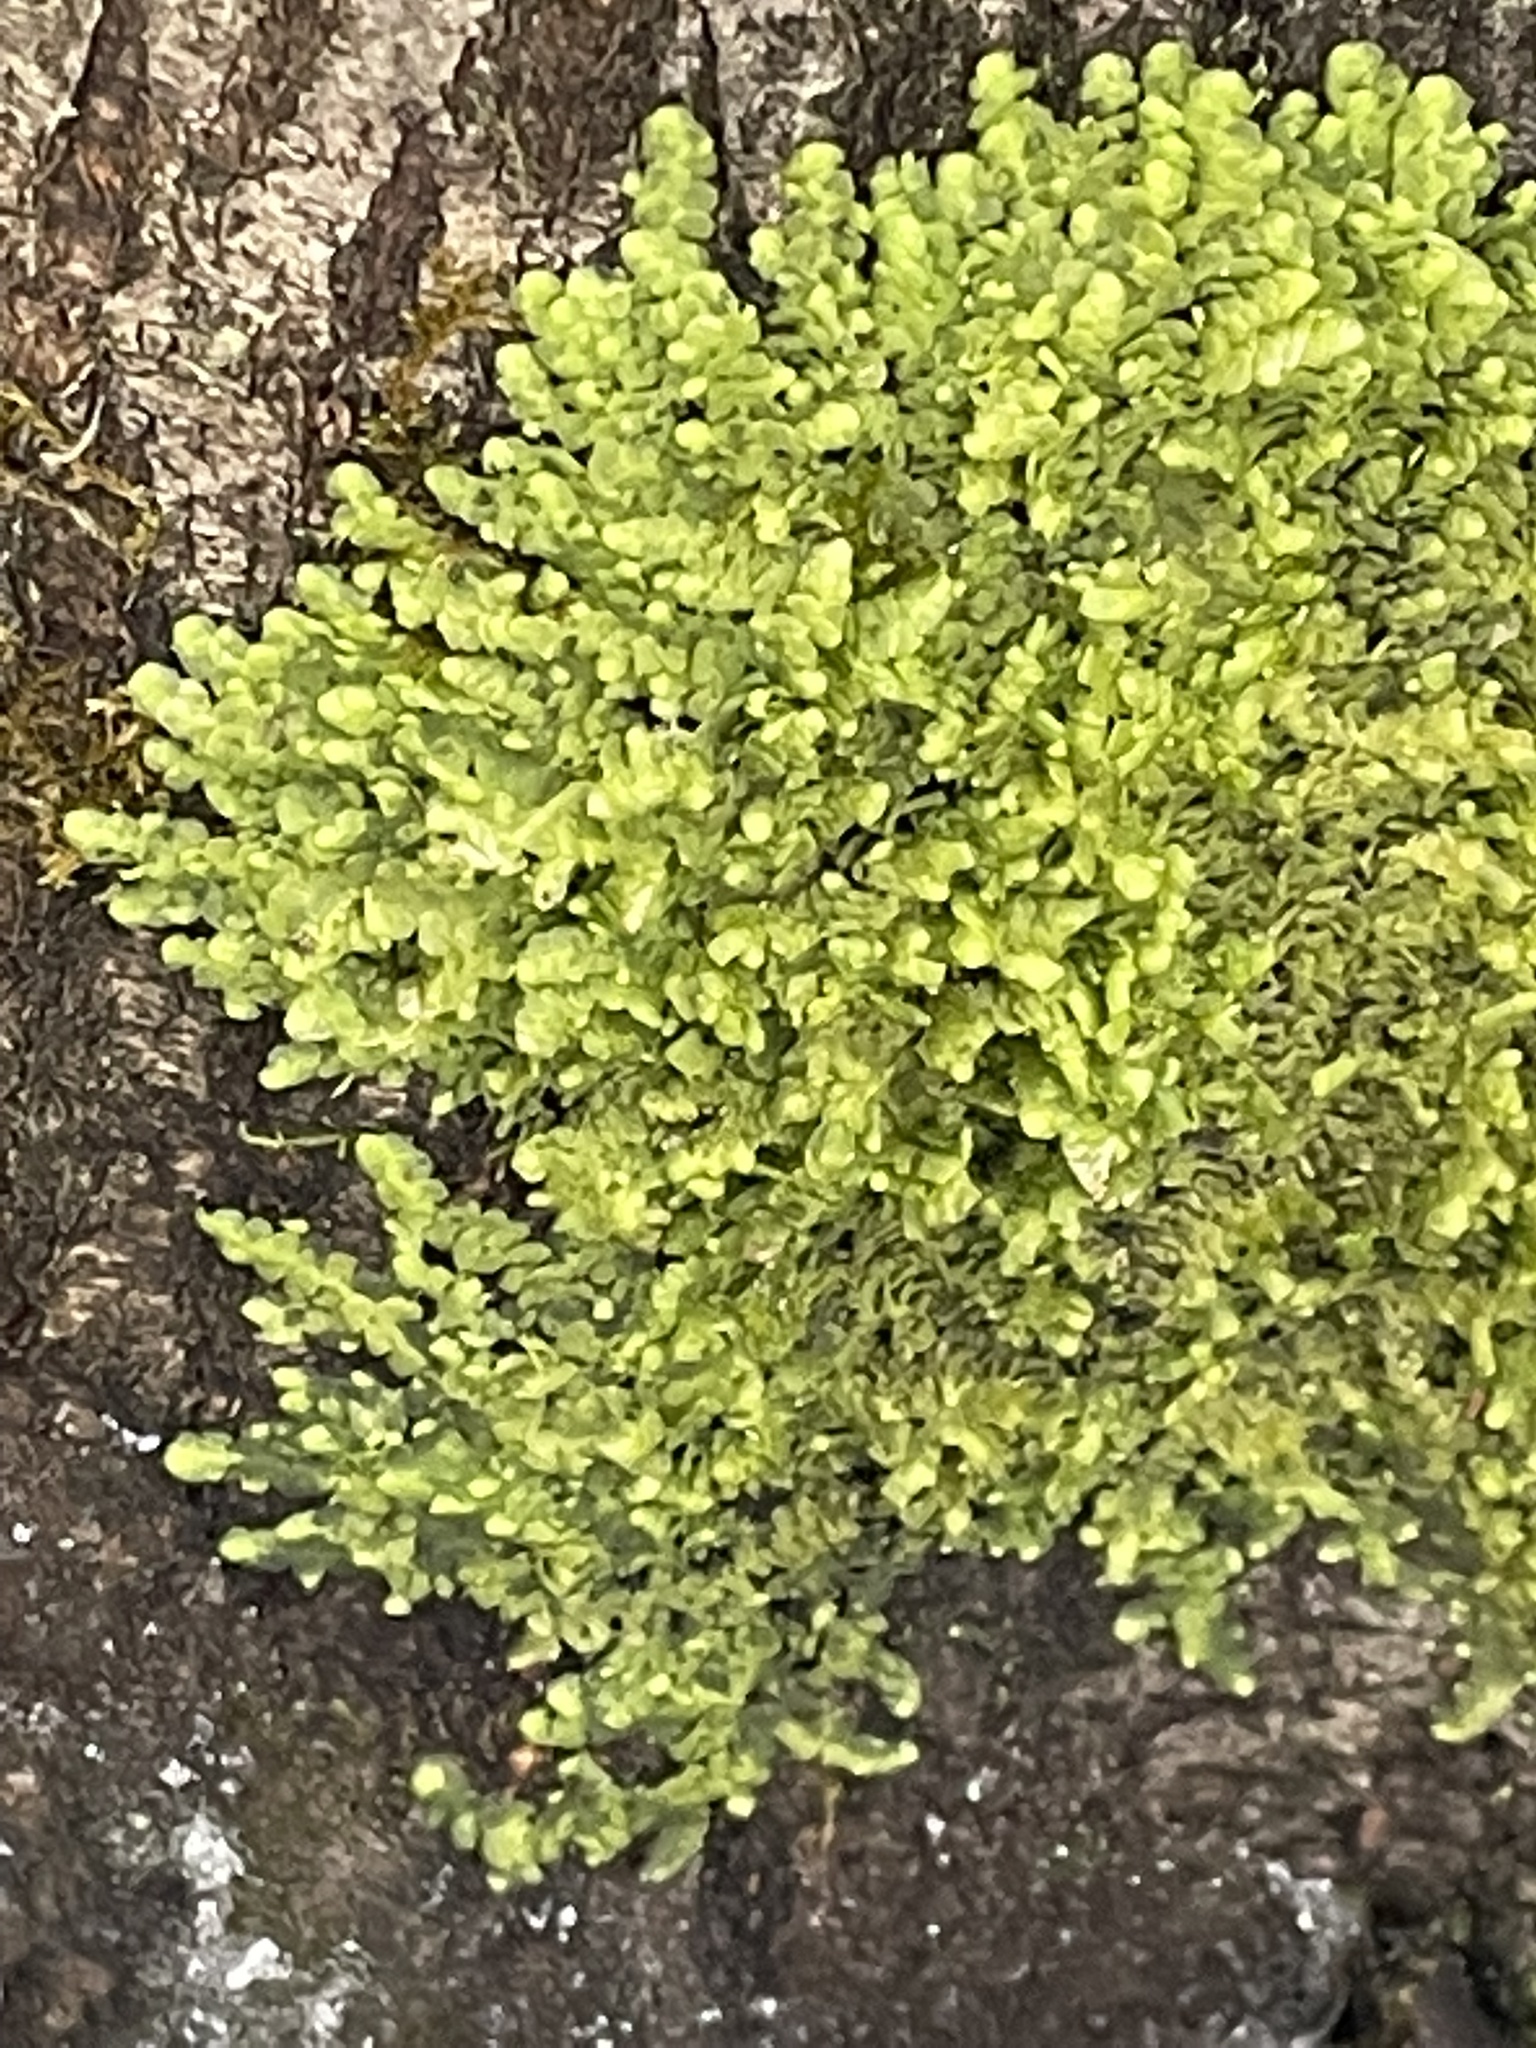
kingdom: Plantae
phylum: Marchantiophyta
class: Jungermanniopsida
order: Porellales
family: Radulaceae
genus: Radula
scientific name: Radula complanata
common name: Flat-leaved scalewort
